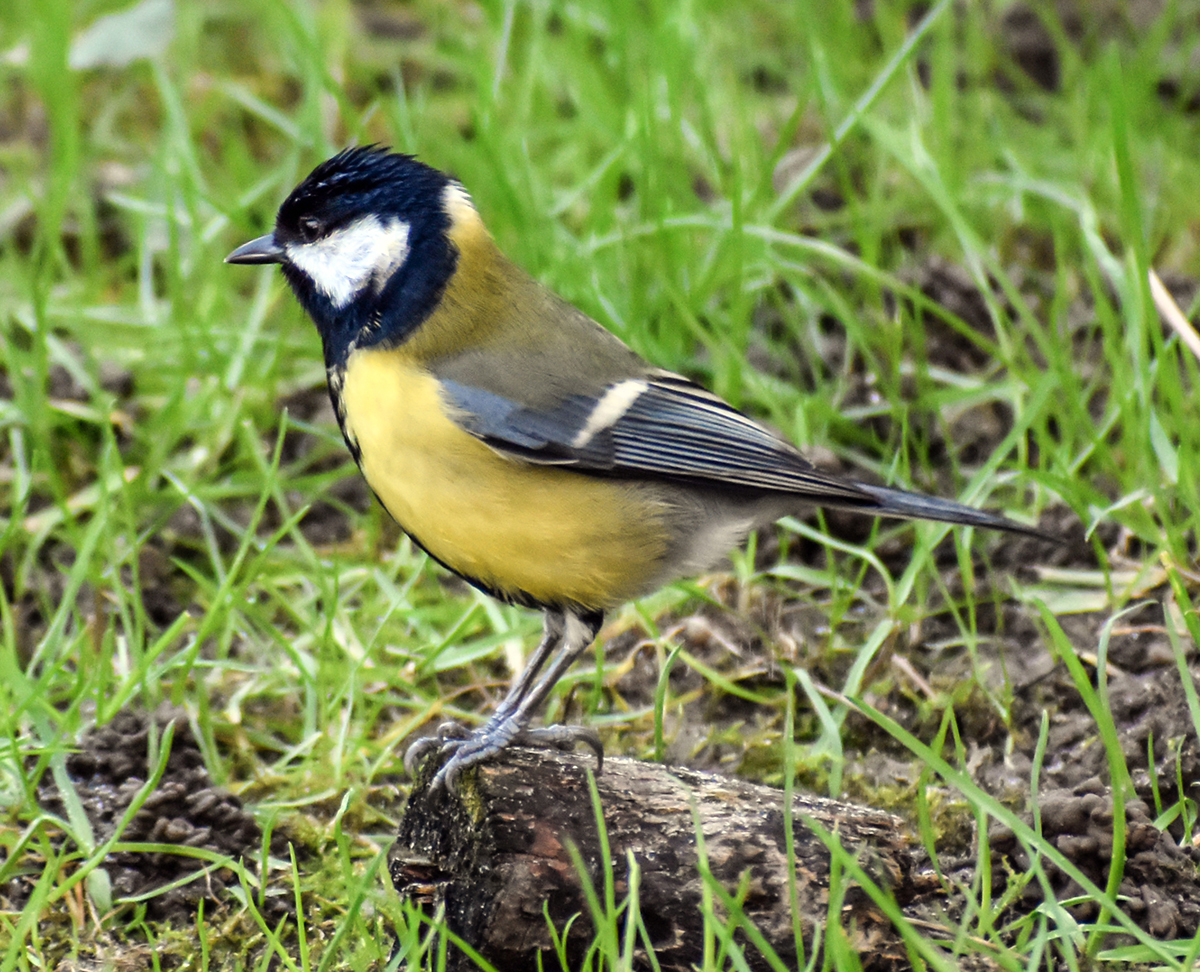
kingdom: Animalia
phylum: Chordata
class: Aves
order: Passeriformes
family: Paridae
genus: Parus
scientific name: Parus major
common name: Great tit
